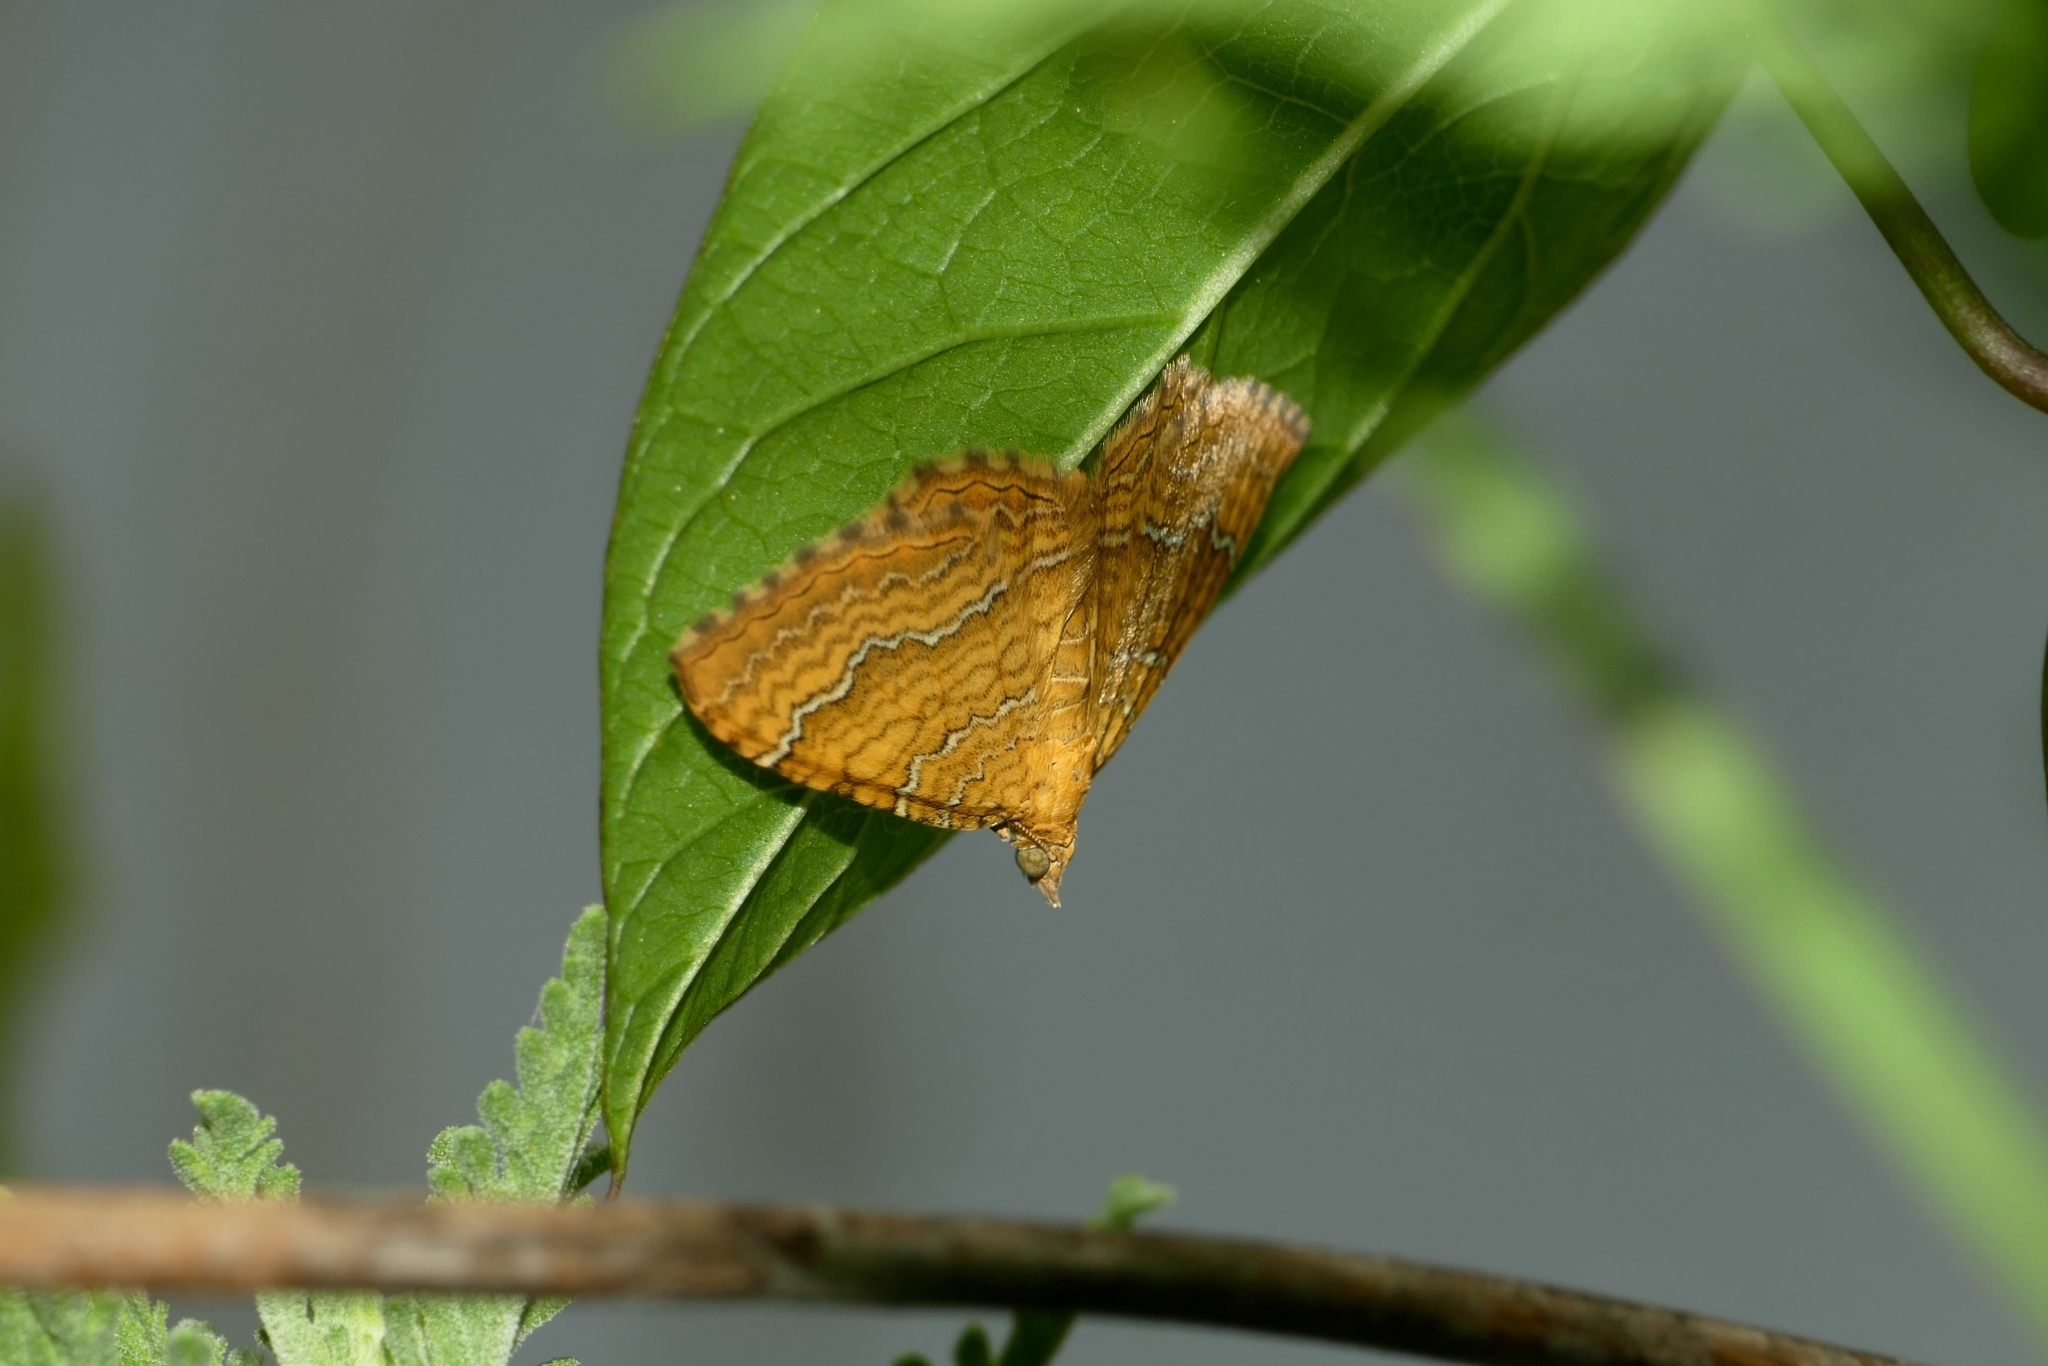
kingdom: Animalia
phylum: Arthropoda
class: Insecta
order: Lepidoptera
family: Geometridae
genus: Camptogramma
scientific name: Camptogramma bilineata
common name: Yellow shell
